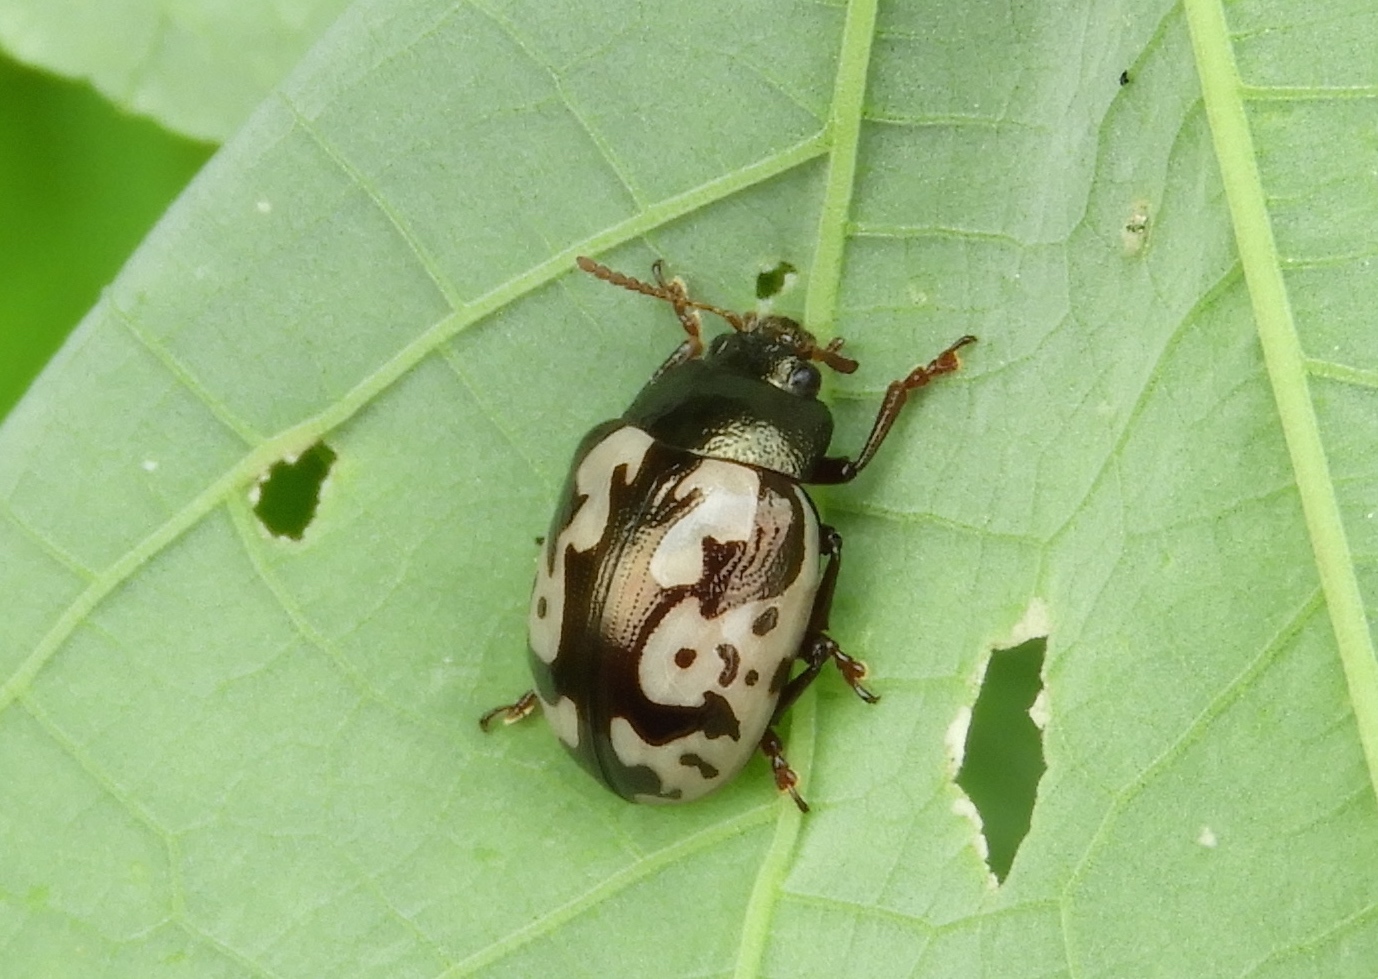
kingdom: Animalia
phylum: Arthropoda
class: Insecta
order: Coleoptera
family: Chrysomelidae
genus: Calligrapha
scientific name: Calligrapha ancoralis
